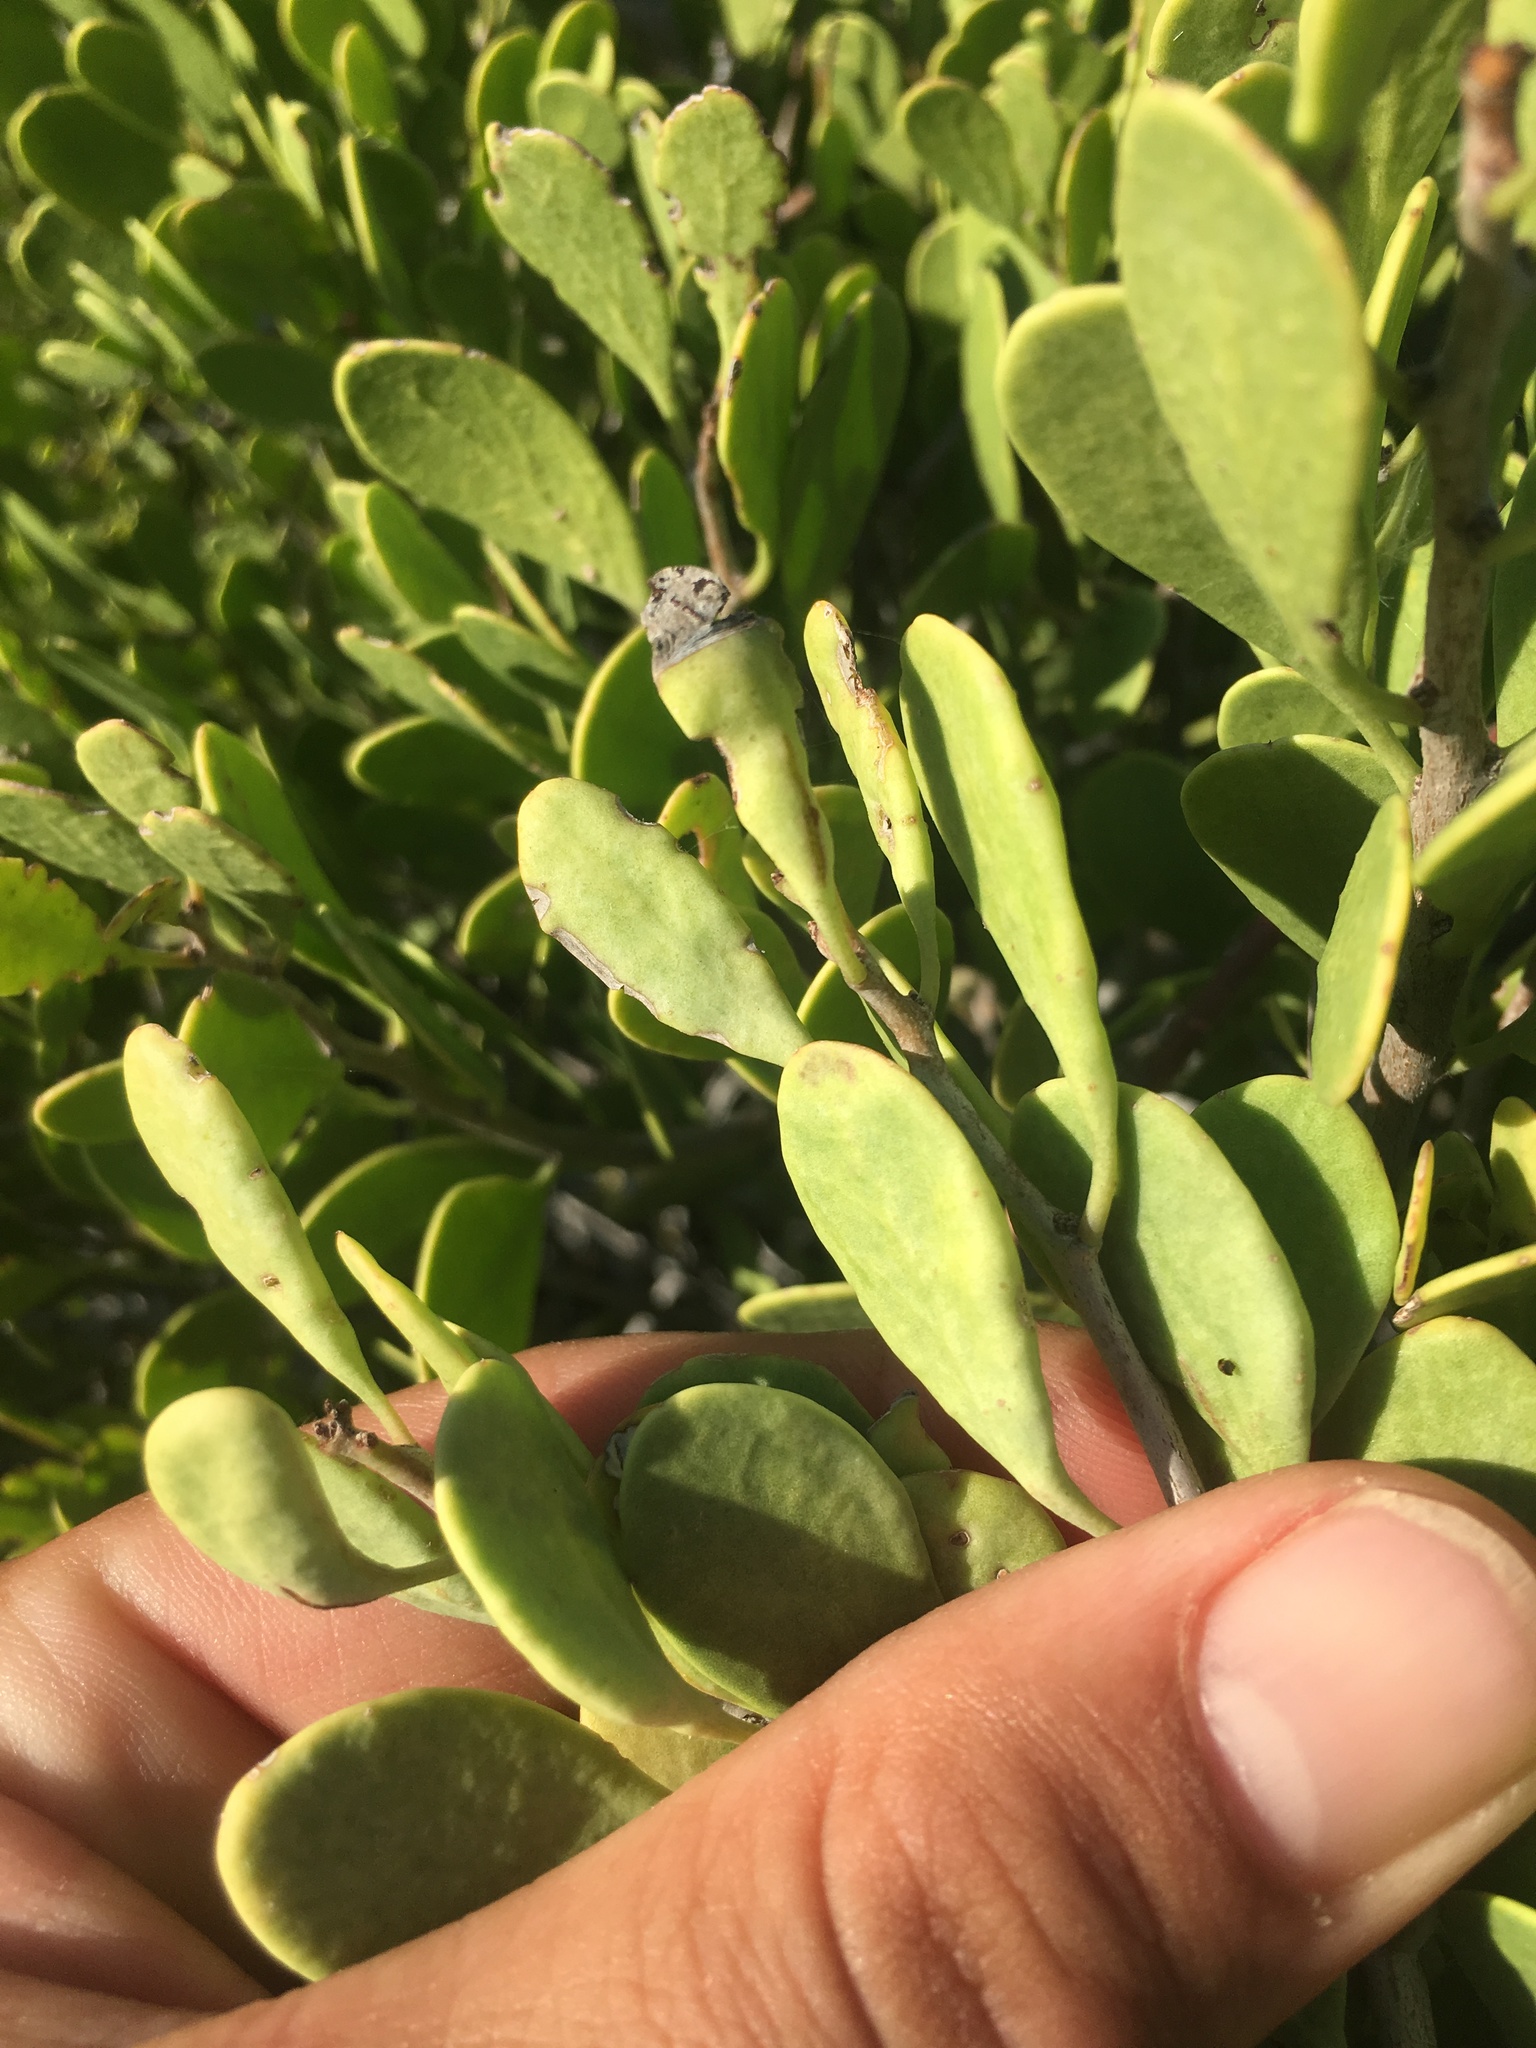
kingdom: Plantae
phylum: Tracheophyta
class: Magnoliopsida
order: Celastrales
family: Celastraceae
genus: Tricerma
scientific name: Tricerma phyllanthoides
